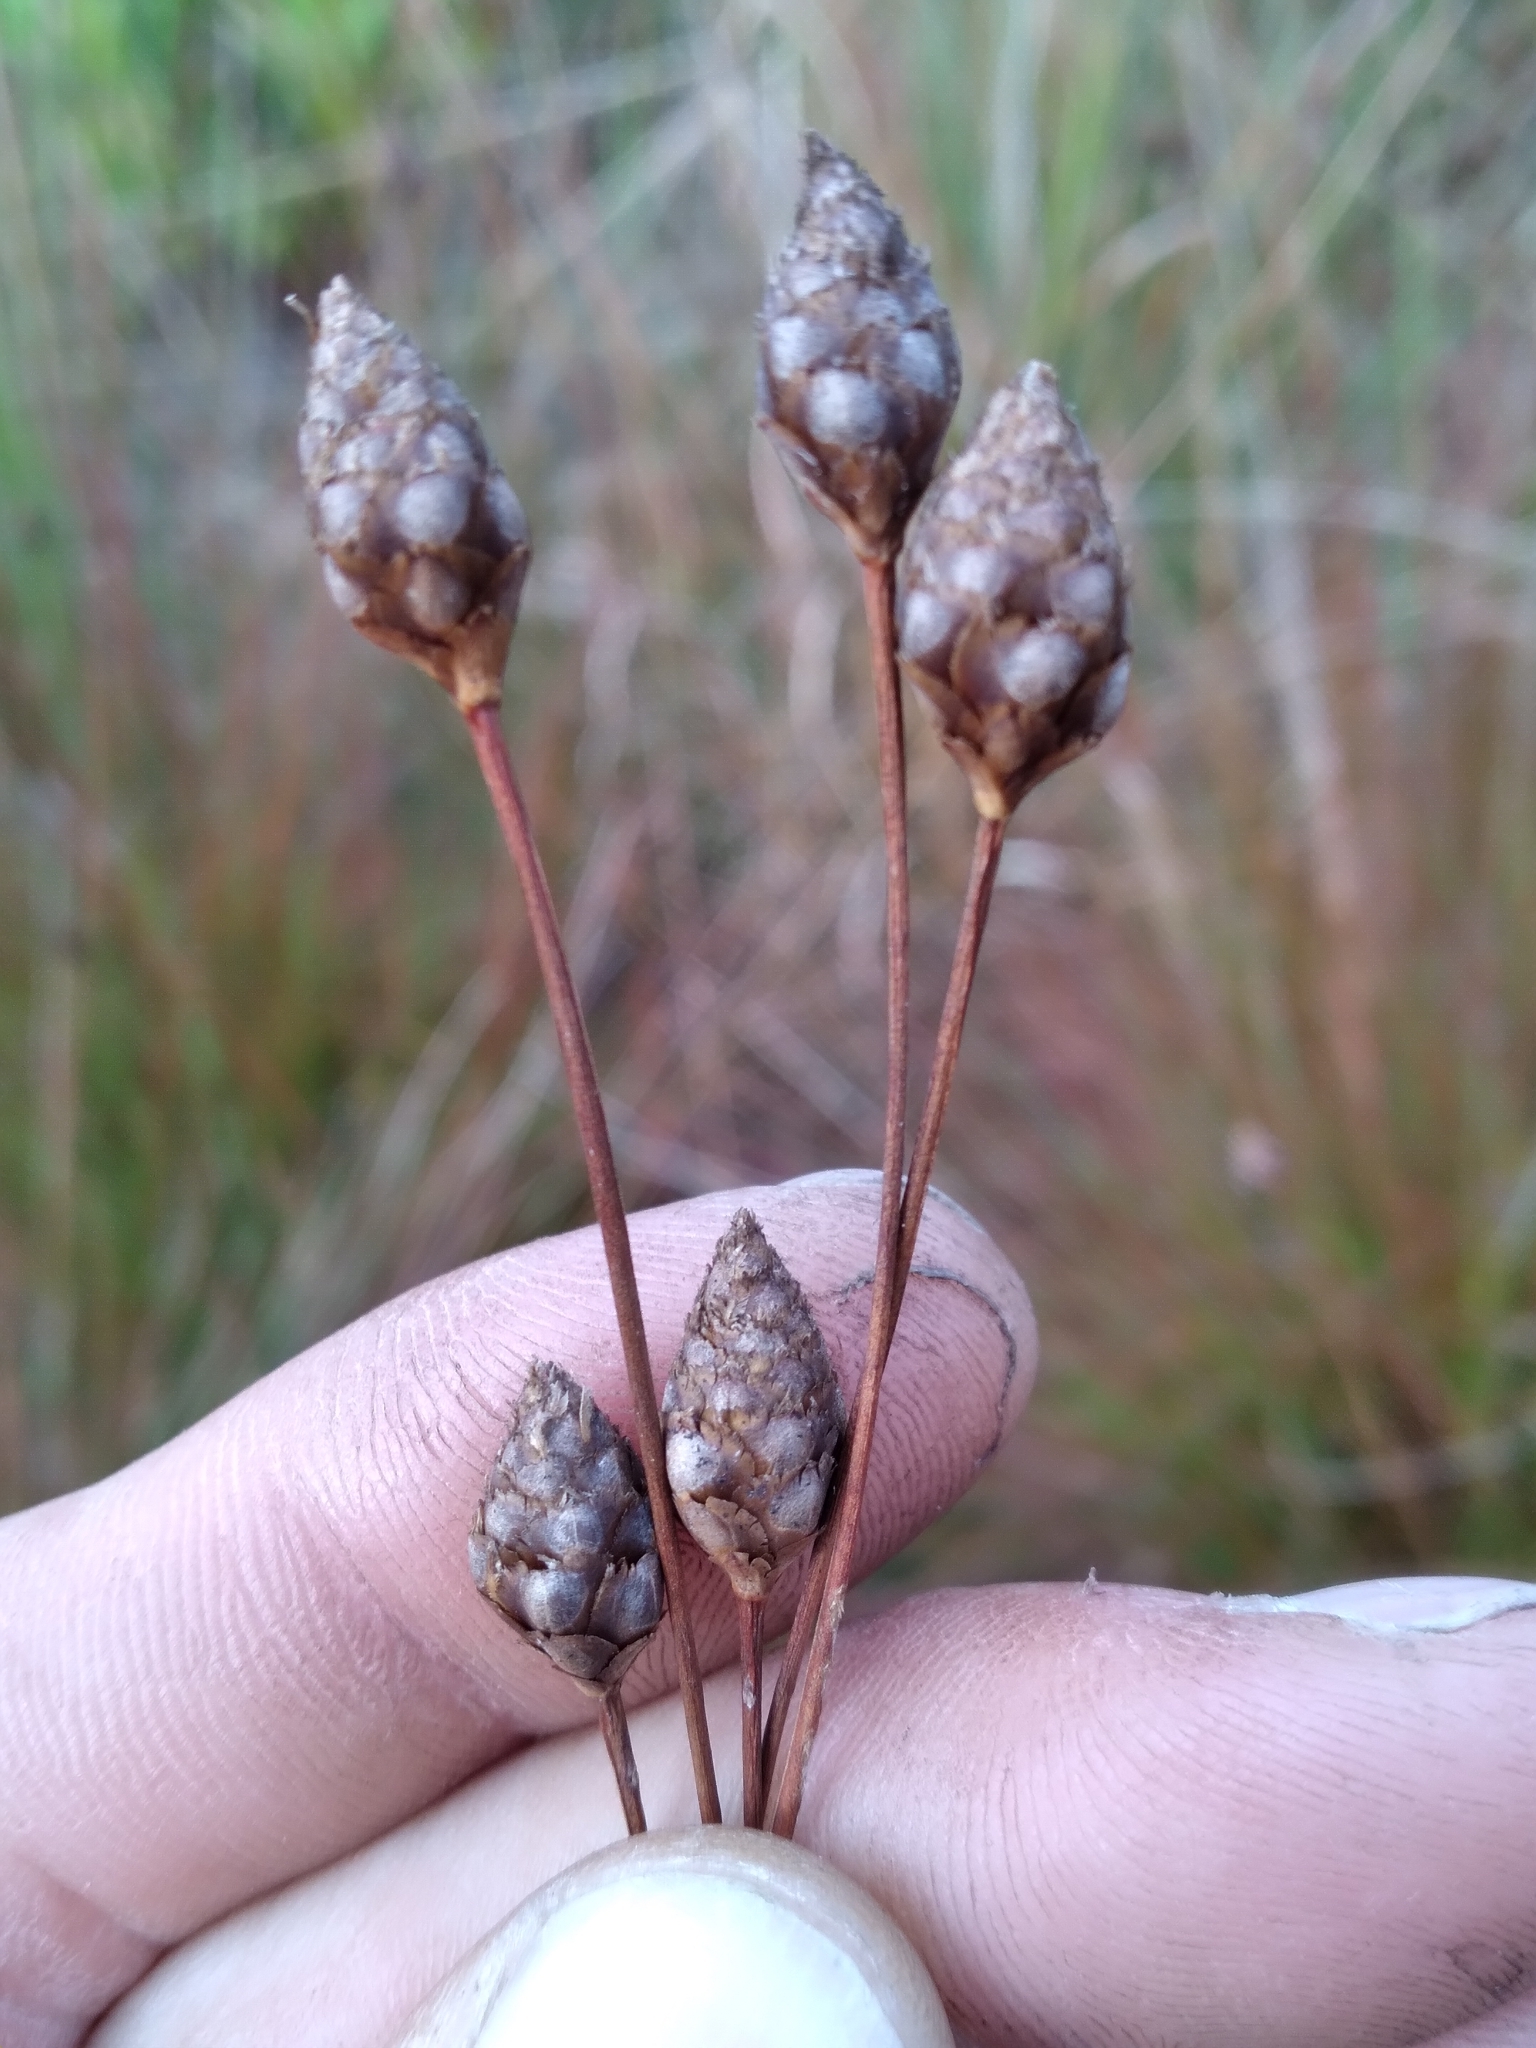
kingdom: Plantae
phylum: Tracheophyta
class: Liliopsida
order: Poales
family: Xyridaceae
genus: Xyris
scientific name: Xyris stenotera
